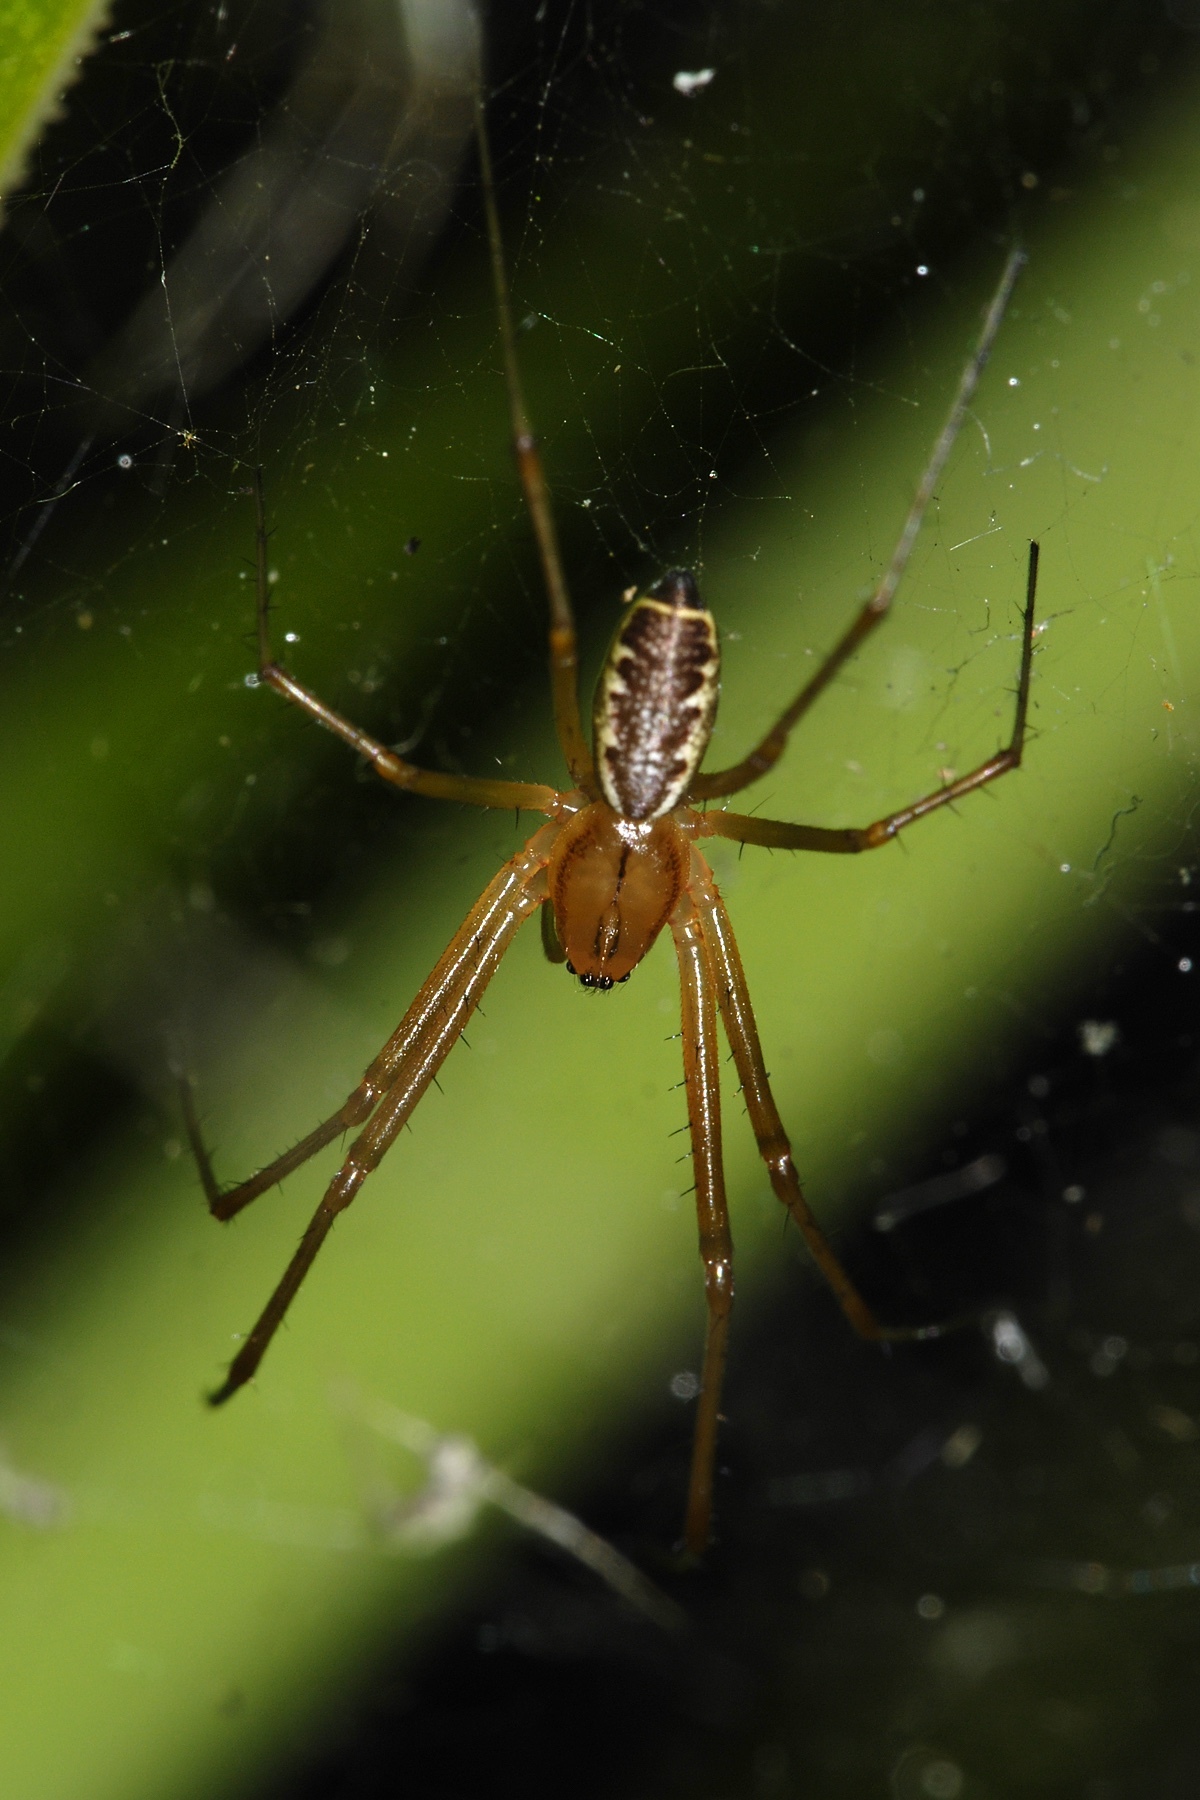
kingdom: Animalia
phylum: Arthropoda
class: Arachnida
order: Araneae
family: Linyphiidae
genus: Linyphia
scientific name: Linyphia triangularis
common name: Money spider
